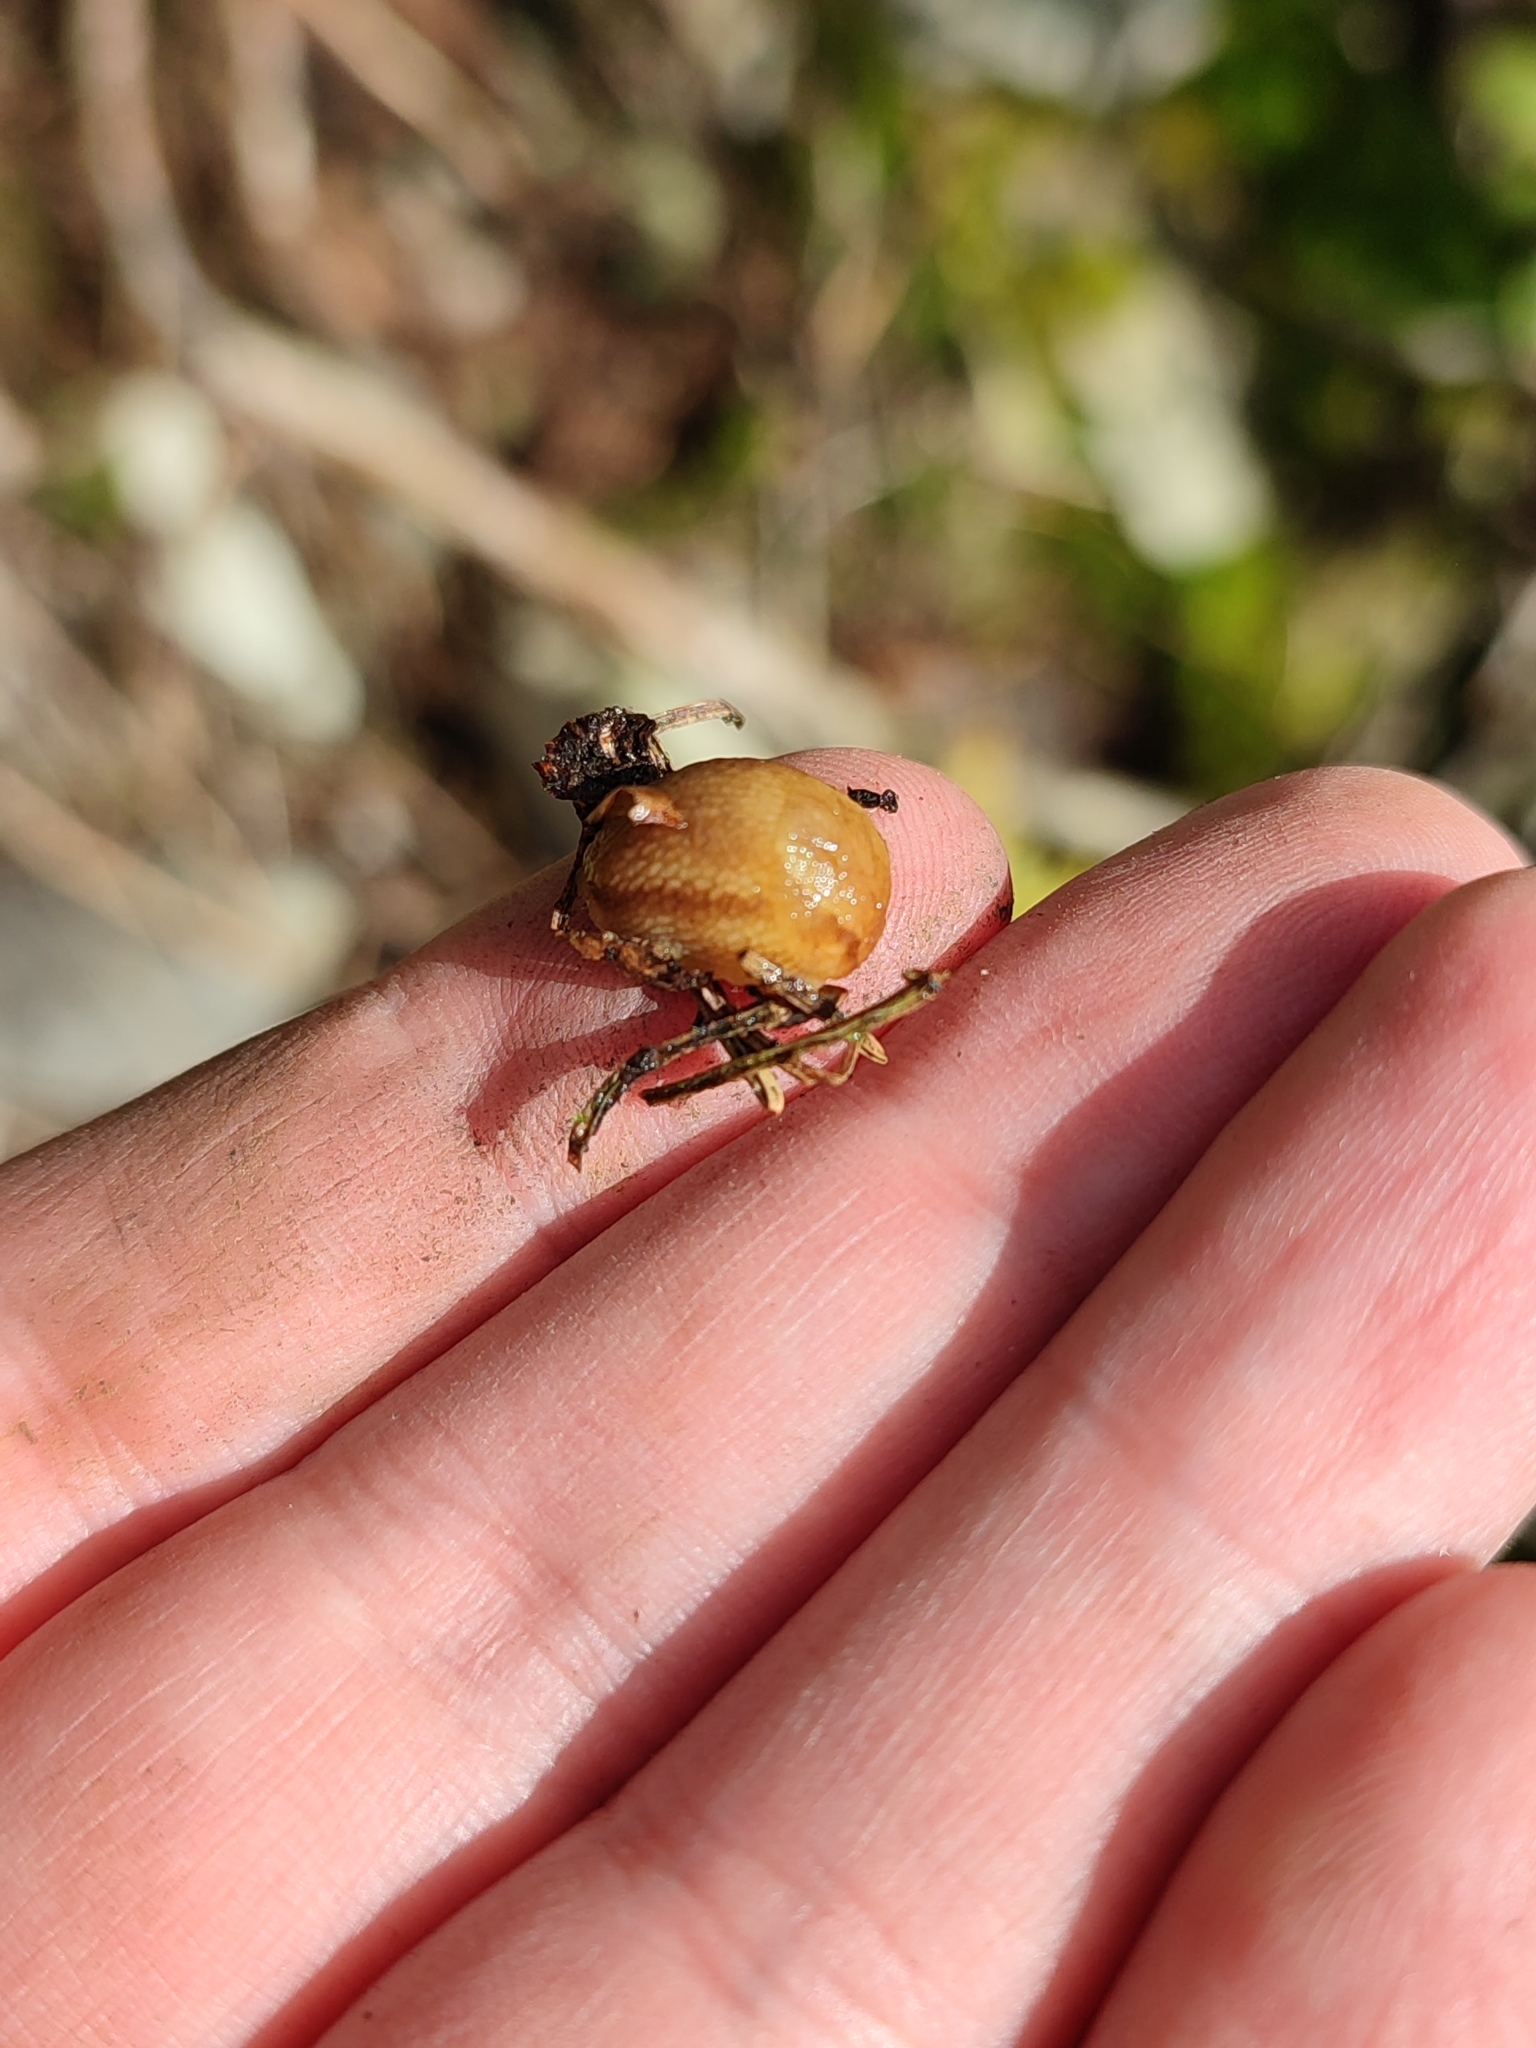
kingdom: Animalia
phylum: Mollusca
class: Gastropoda
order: Stylommatophora
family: Arionidae
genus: Arion
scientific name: Arion fuscus
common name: Northern dusky slug
